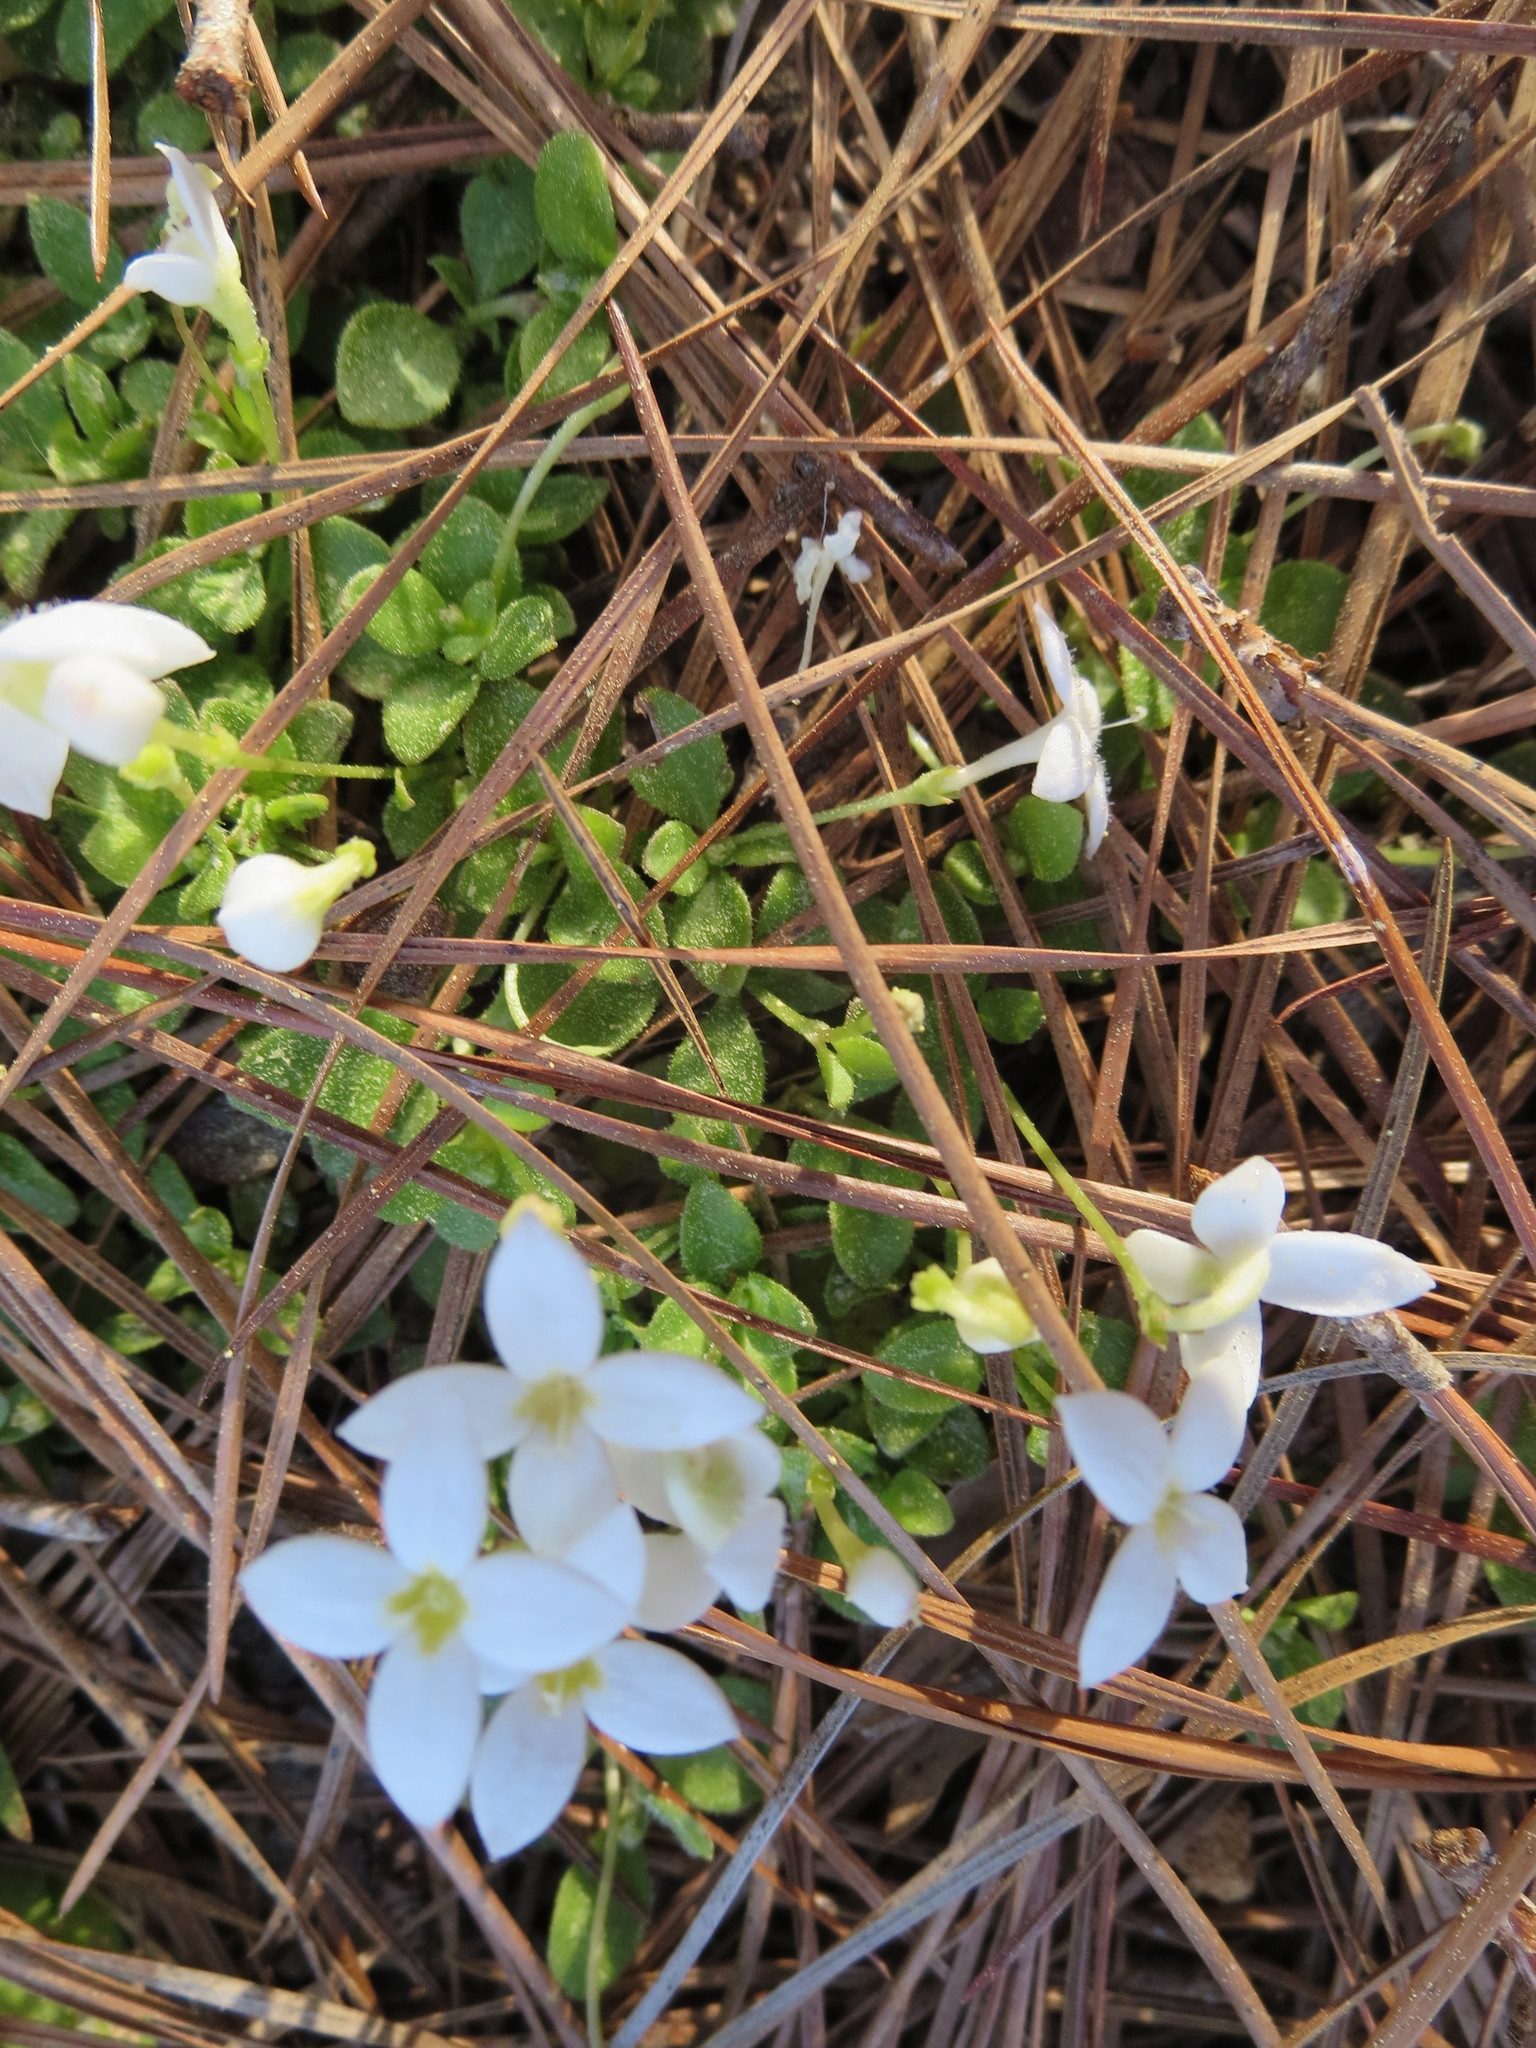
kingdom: Plantae
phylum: Tracheophyta
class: Magnoliopsida
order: Gentianales
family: Rubiaceae
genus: Houstonia
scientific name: Houstonia procumbens
